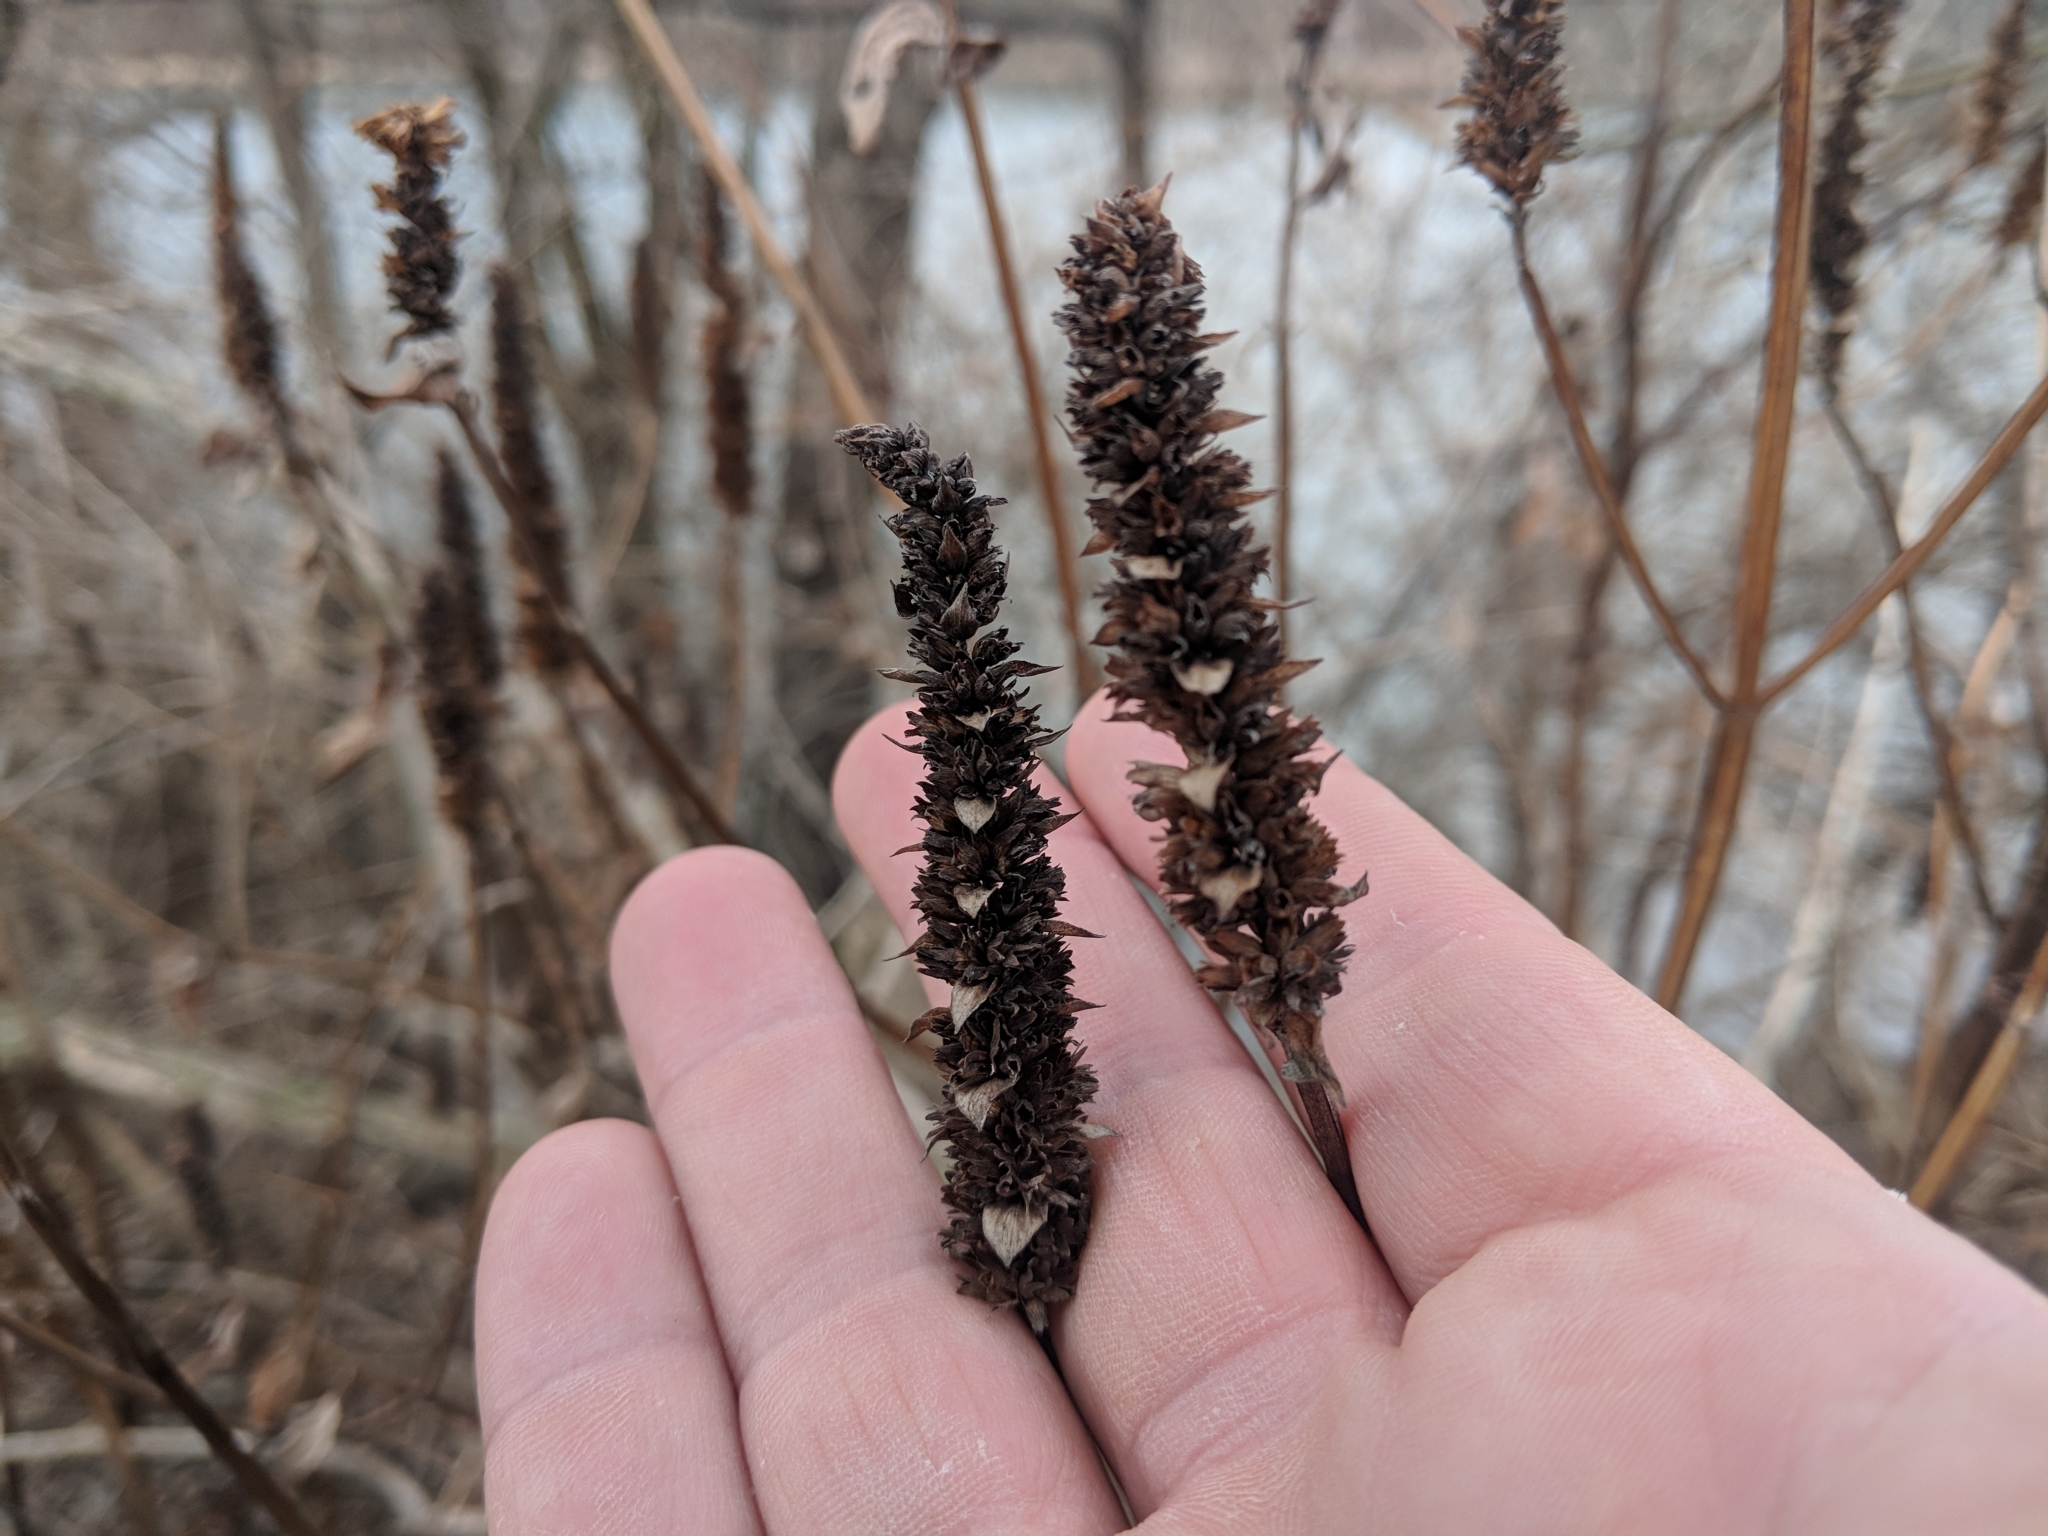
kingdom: Plantae
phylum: Tracheophyta
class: Magnoliopsida
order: Lamiales
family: Lamiaceae
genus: Agastache
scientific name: Agastache nepetoides
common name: Catnip giant hyssop
